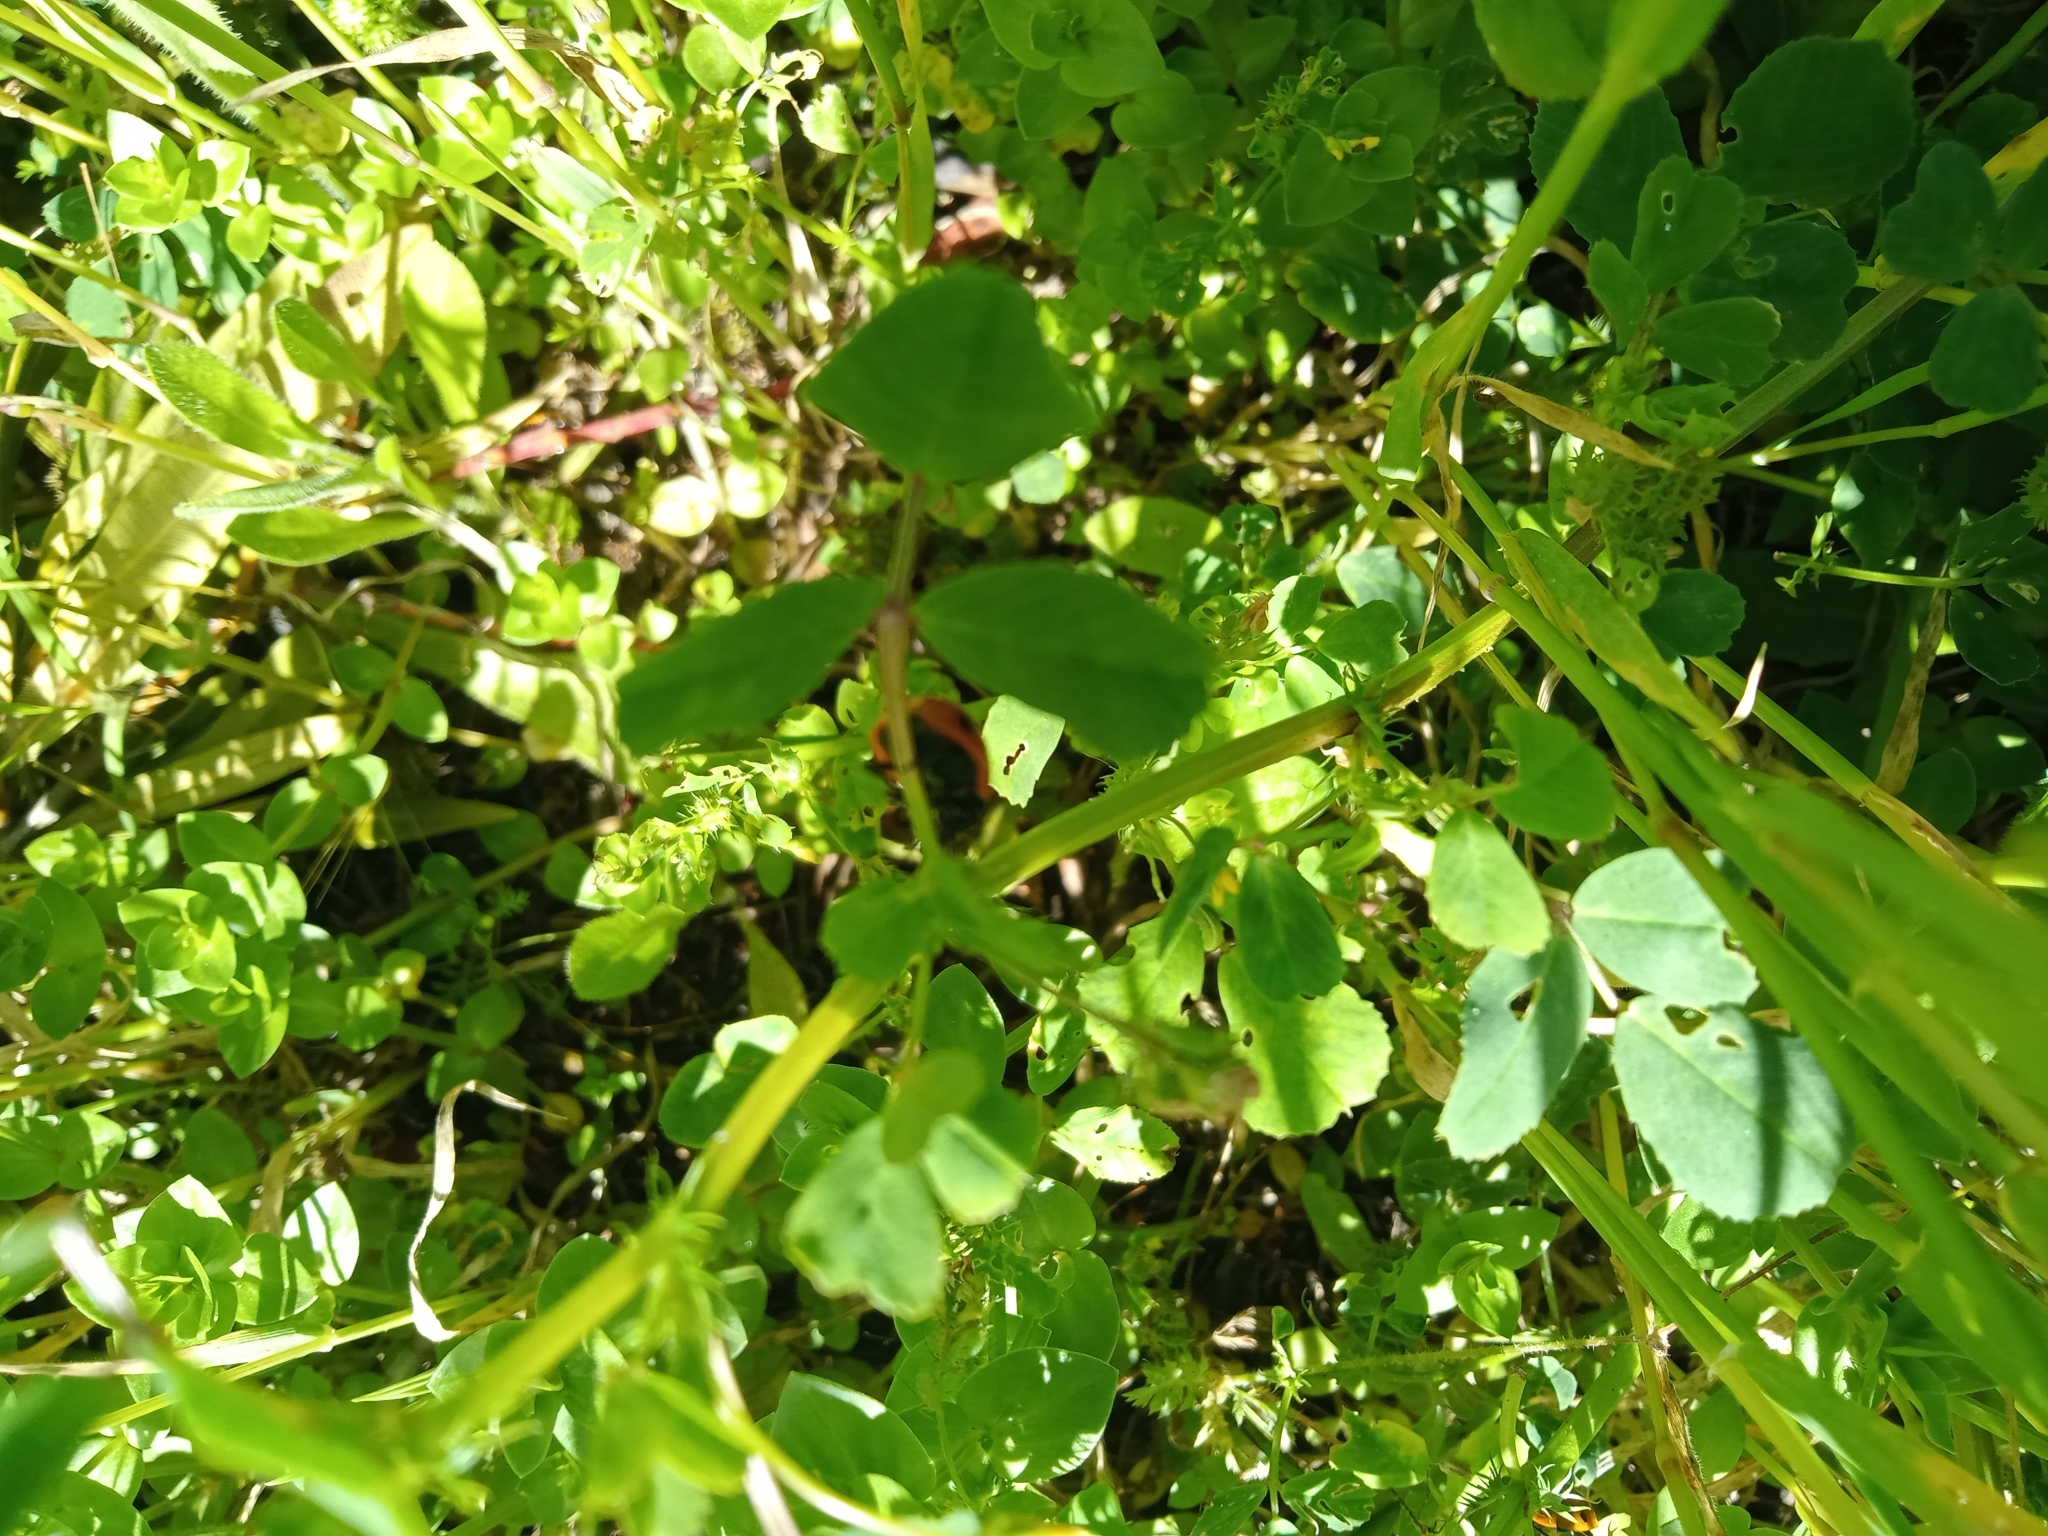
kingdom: Animalia
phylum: Arthropoda
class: Insecta
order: Coleoptera
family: Coccinellidae
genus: Coccinella
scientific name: Coccinella septempunctata
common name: Sevenspotted lady beetle
